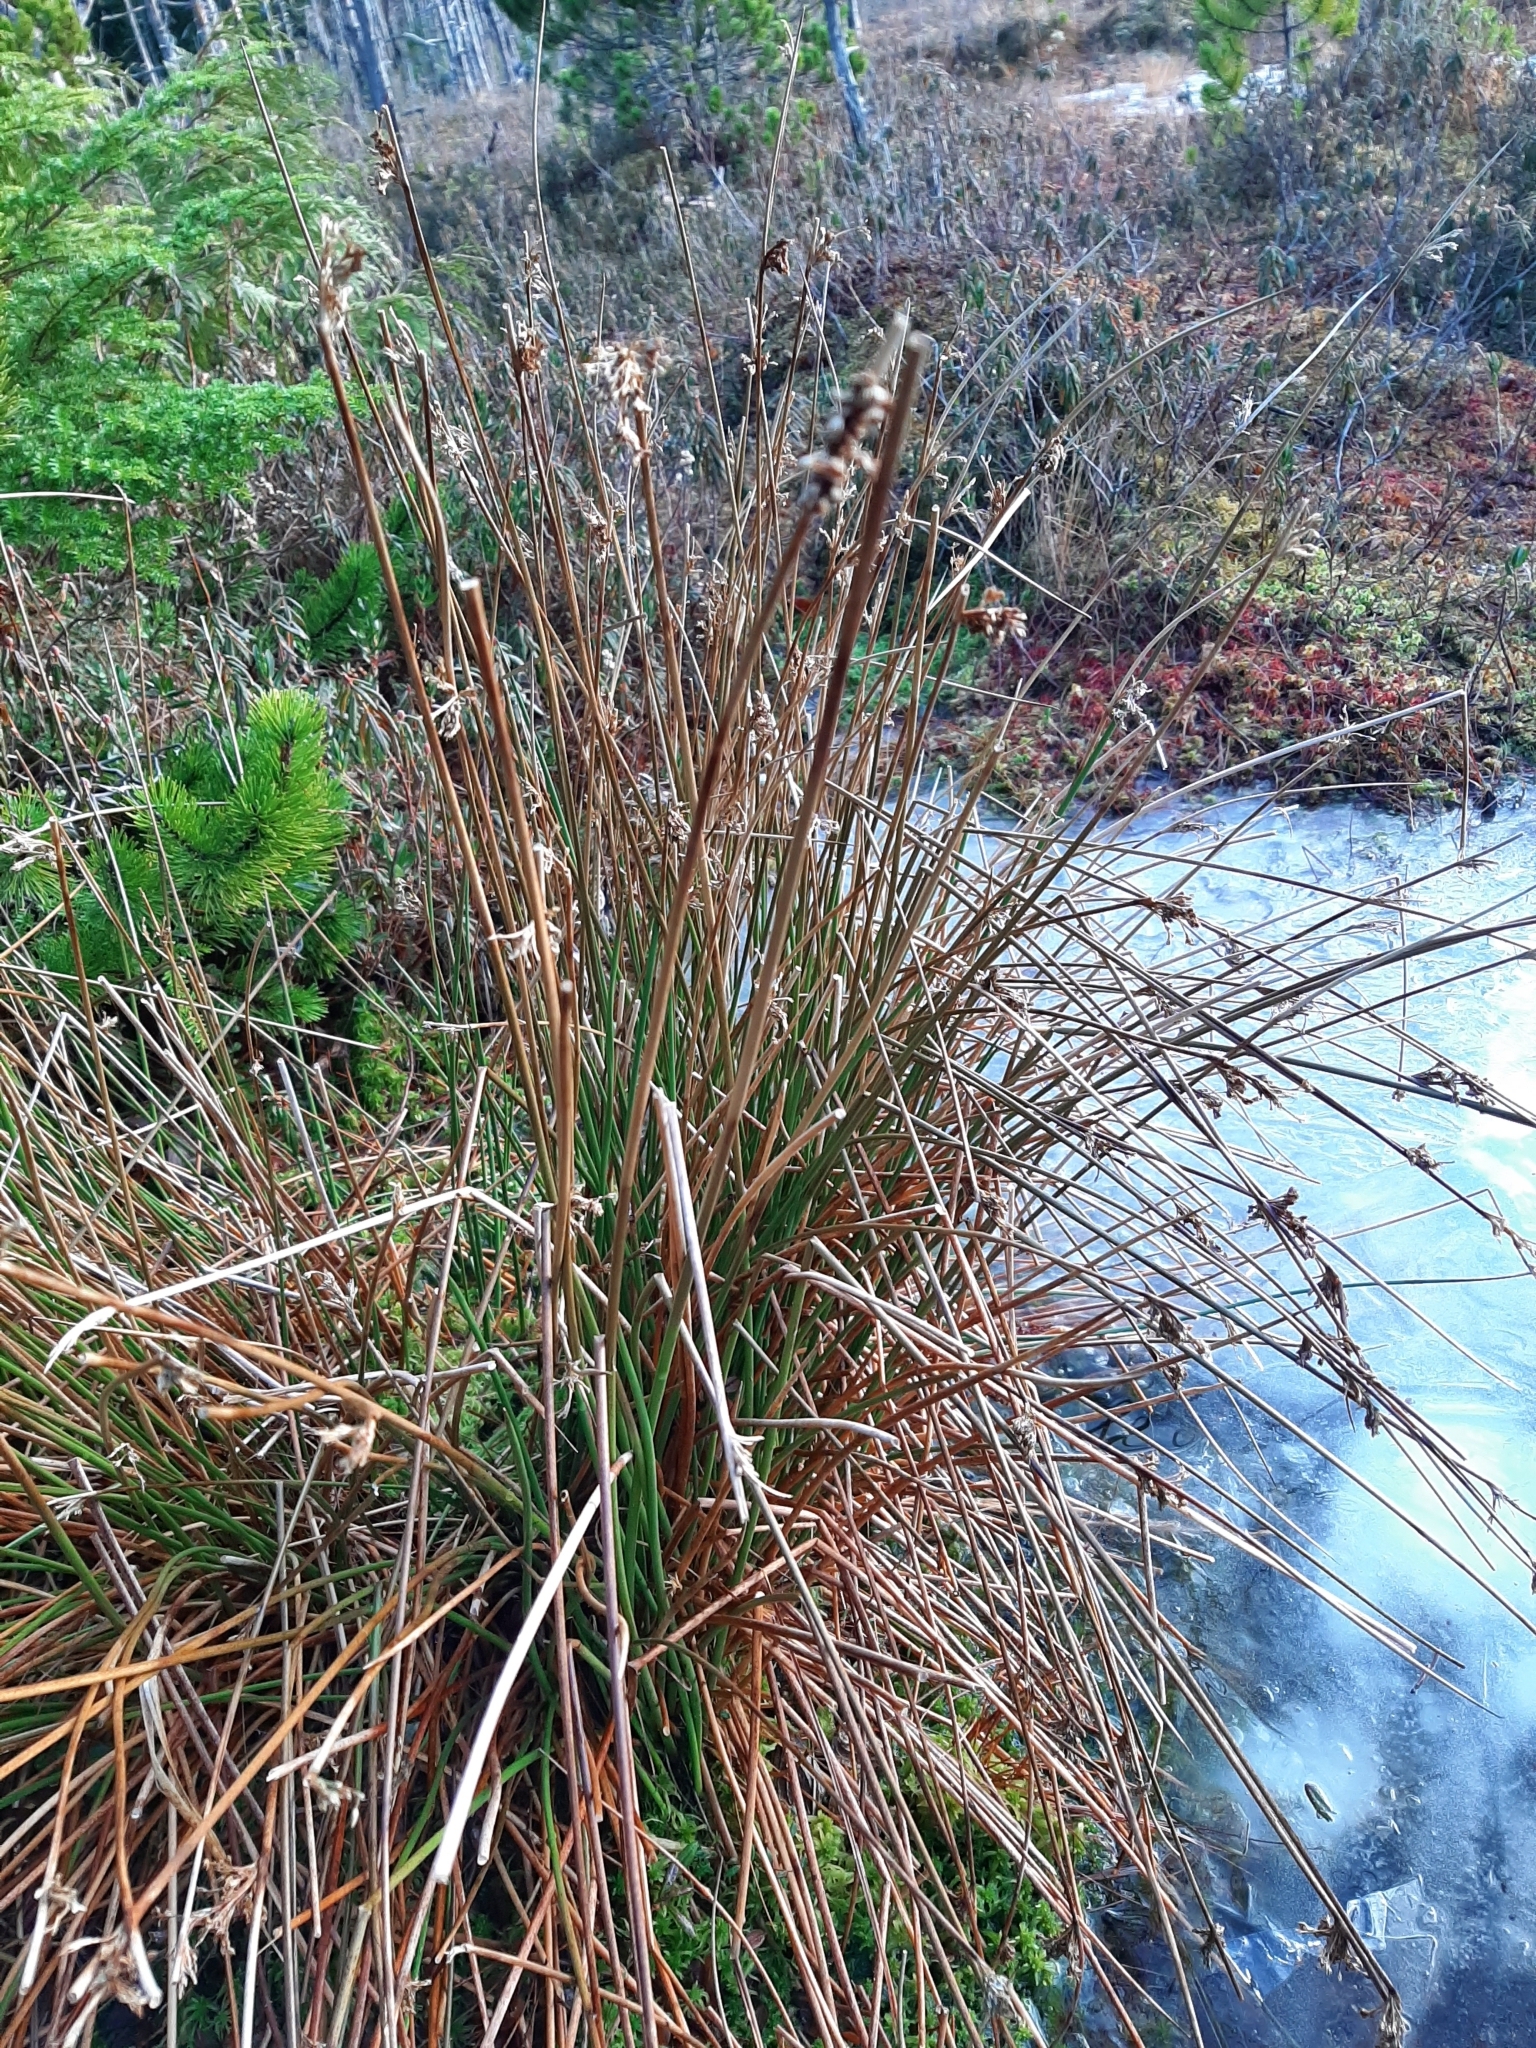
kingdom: Plantae
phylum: Tracheophyta
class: Liliopsida
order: Poales
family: Juncaceae
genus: Juncus
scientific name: Juncus effusus
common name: Soft rush
